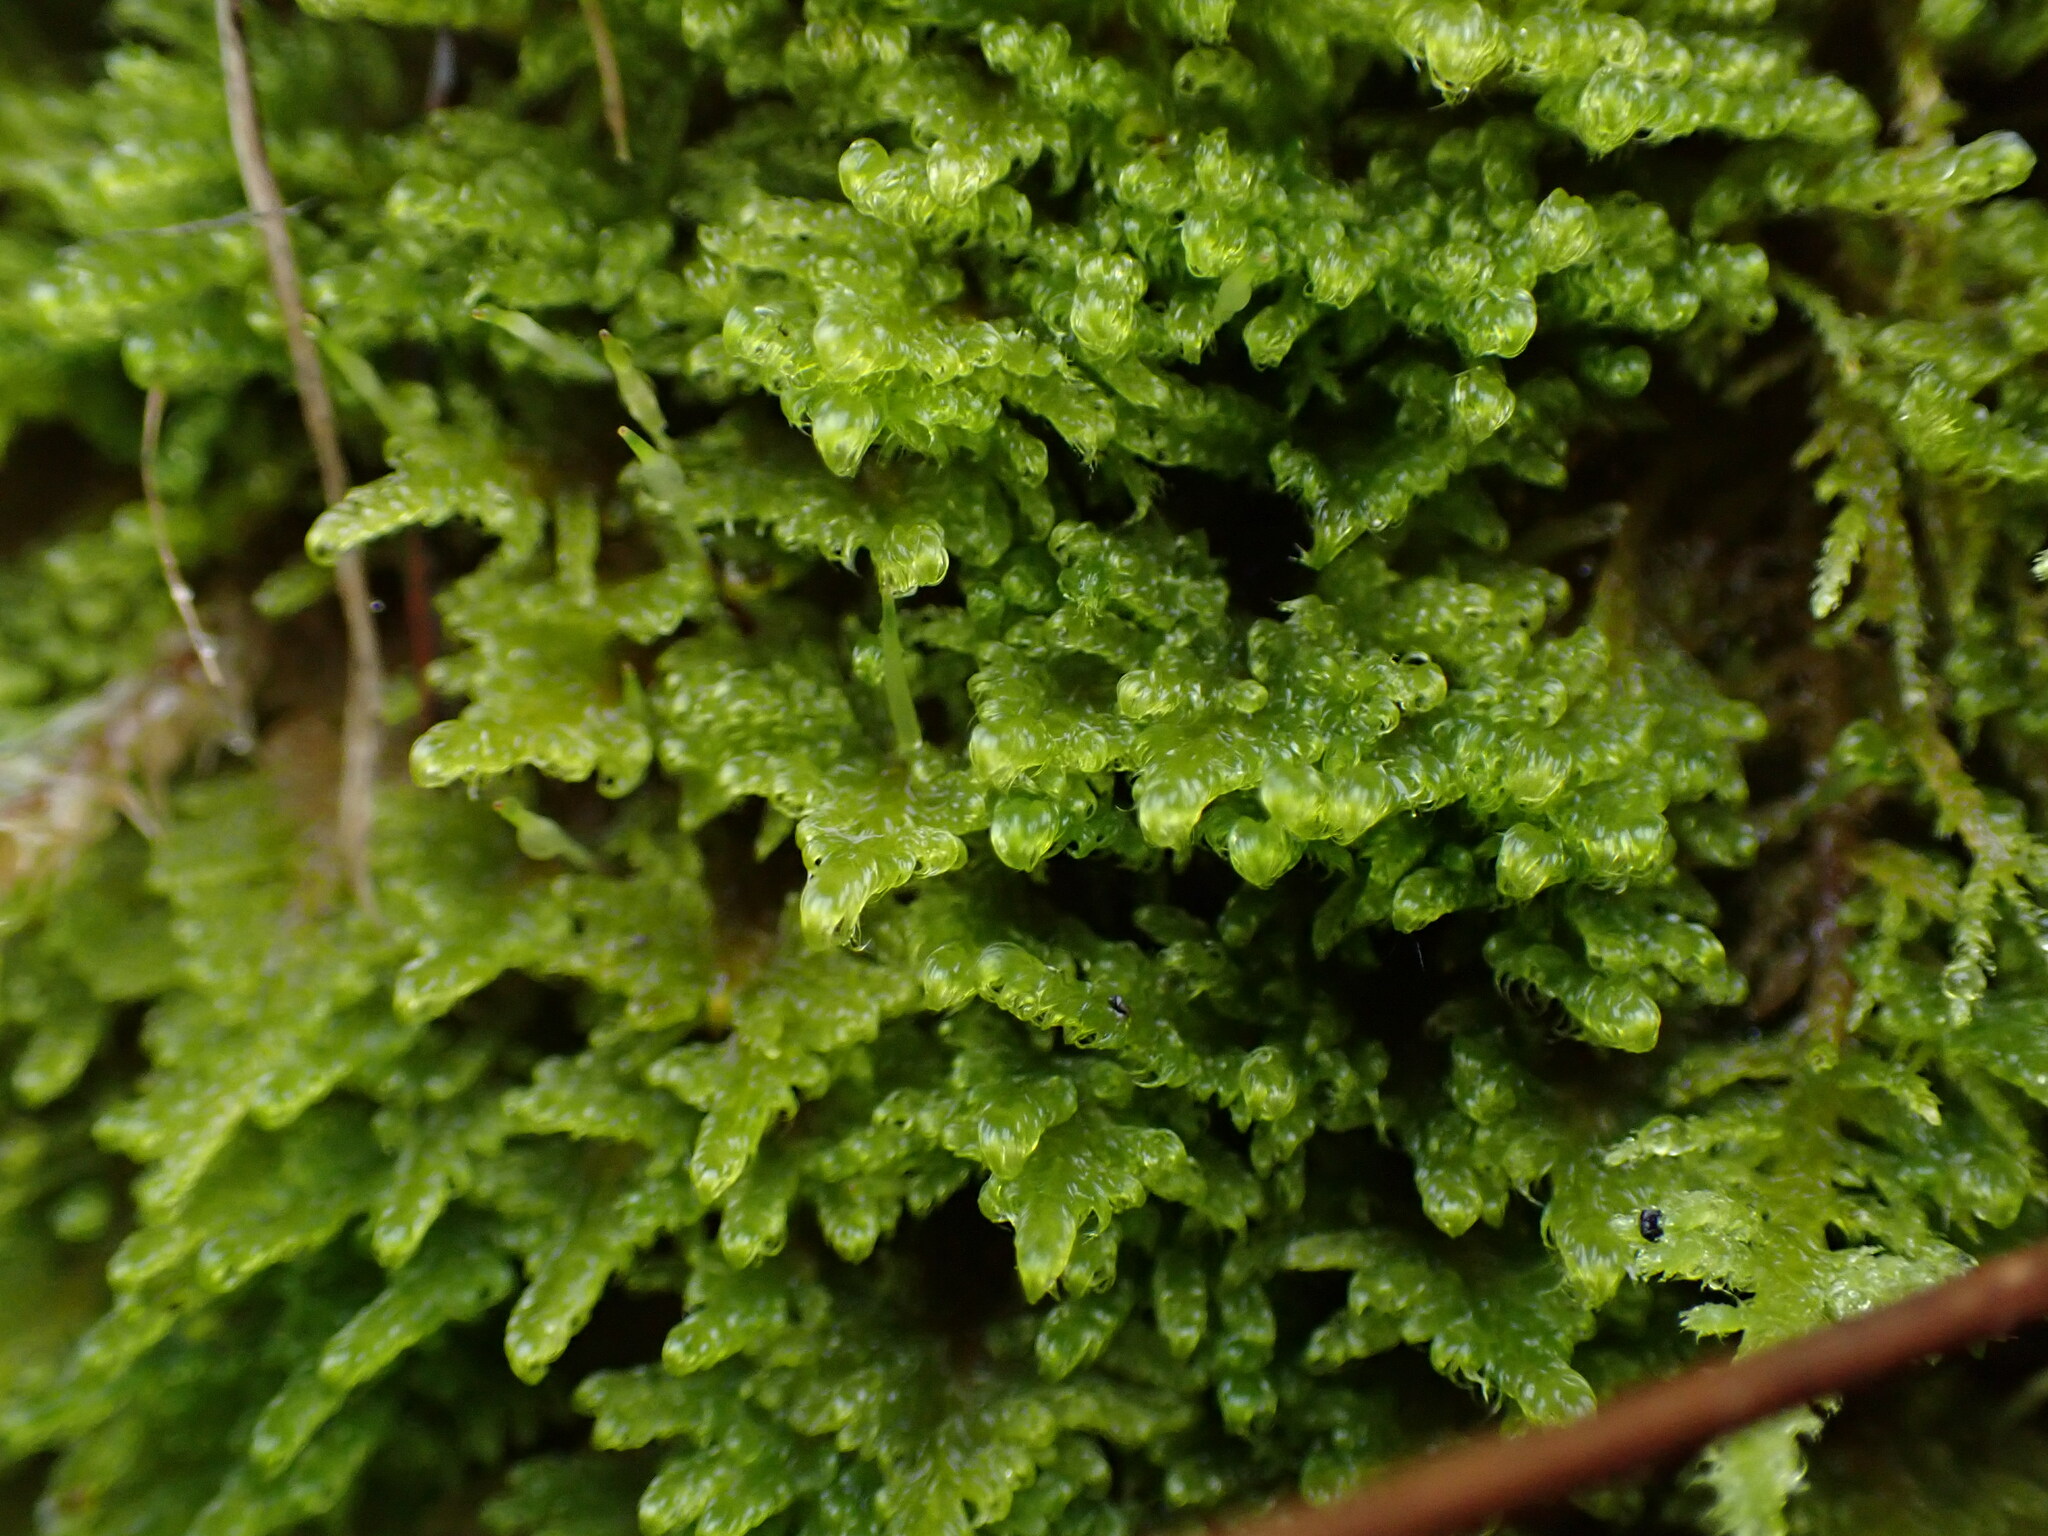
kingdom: Plantae
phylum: Bryophyta
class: Bryopsida
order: Hypnales
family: Stereodontaceae
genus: Stereodon
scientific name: Stereodon subimponens
